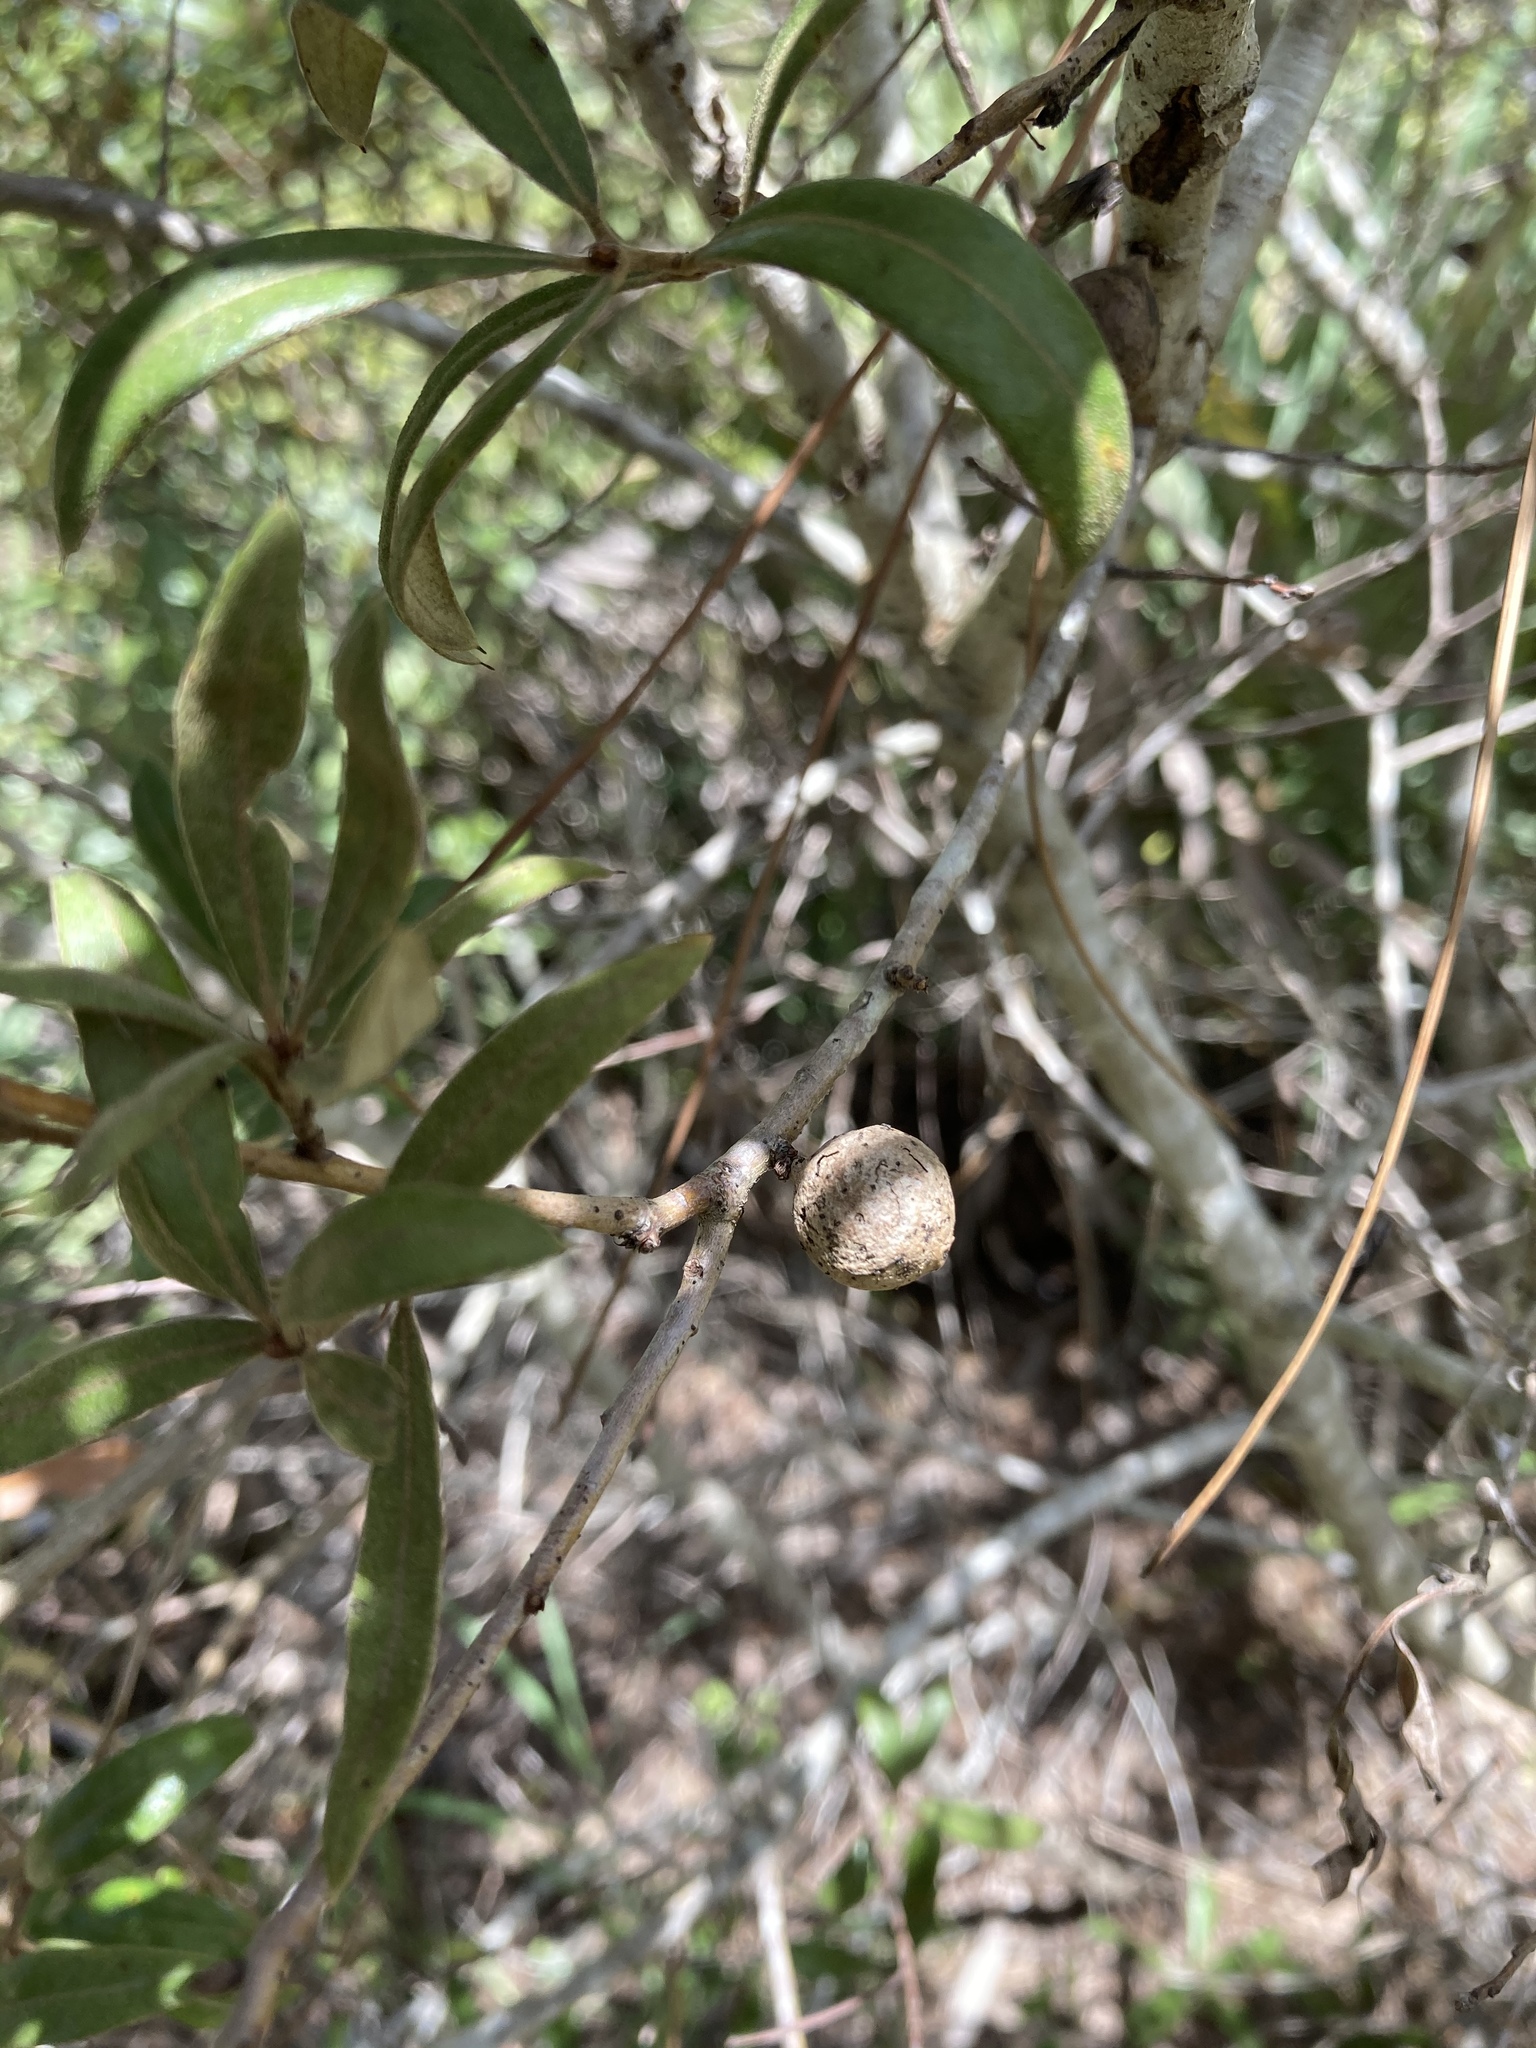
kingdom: Plantae
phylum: Tracheophyta
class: Magnoliopsida
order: Fagales
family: Fagaceae
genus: Quercus
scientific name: Quercus pumila
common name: Runner oak
